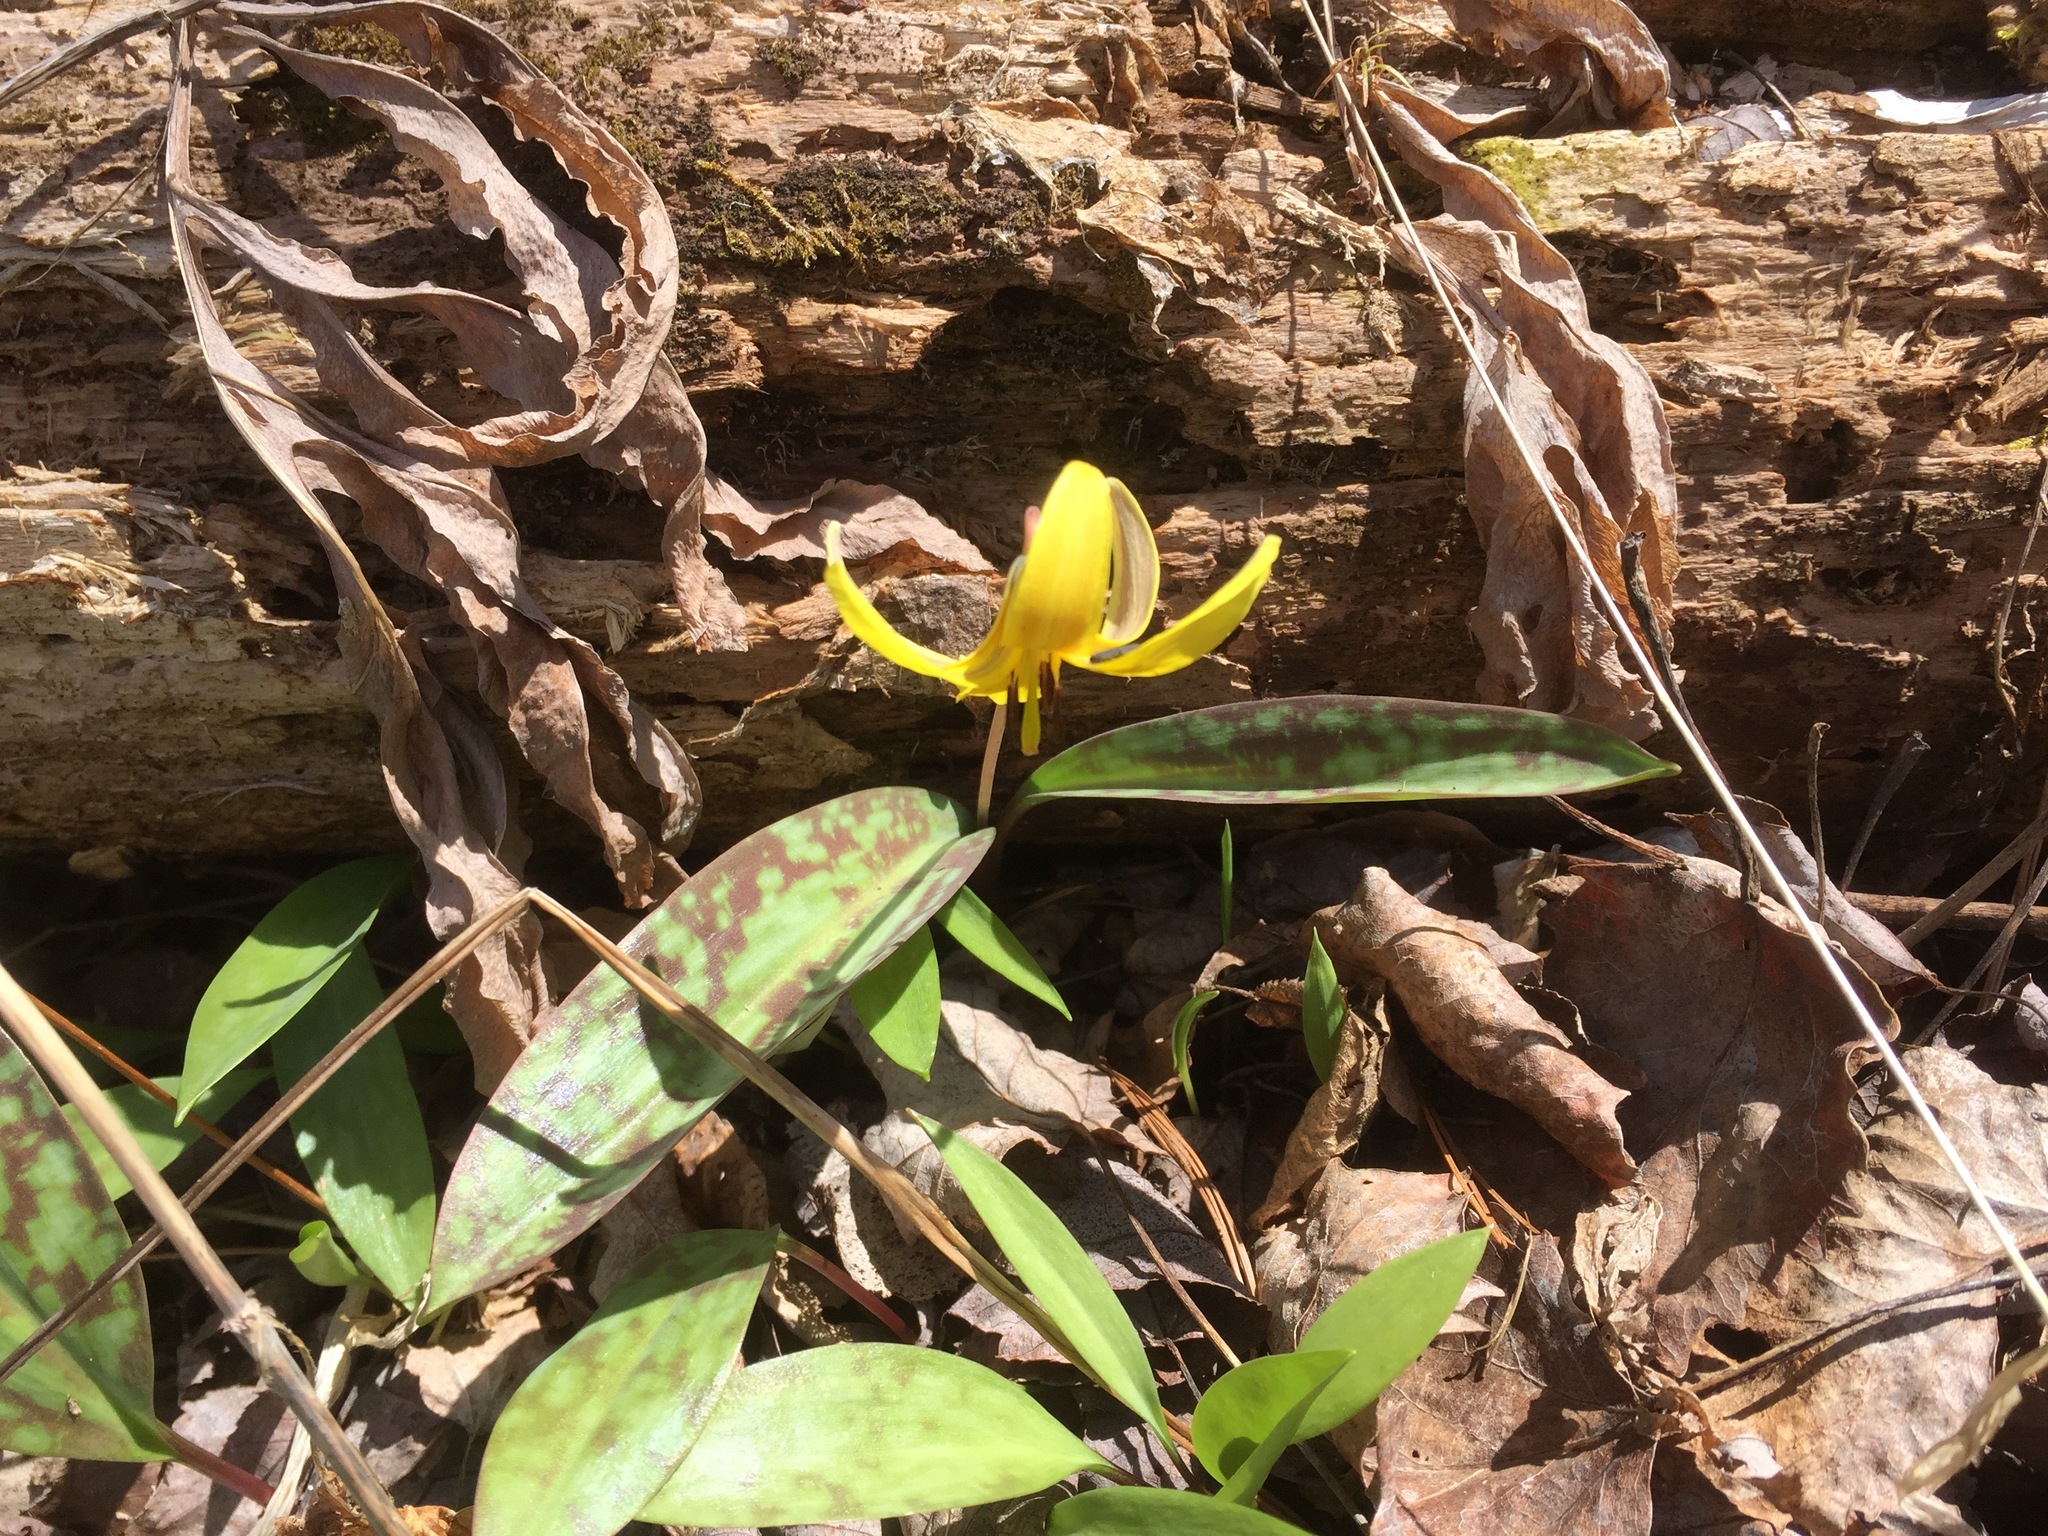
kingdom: Plantae
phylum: Tracheophyta
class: Liliopsida
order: Liliales
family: Liliaceae
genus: Erythronium
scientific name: Erythronium americanum
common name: Yellow adder's-tongue
